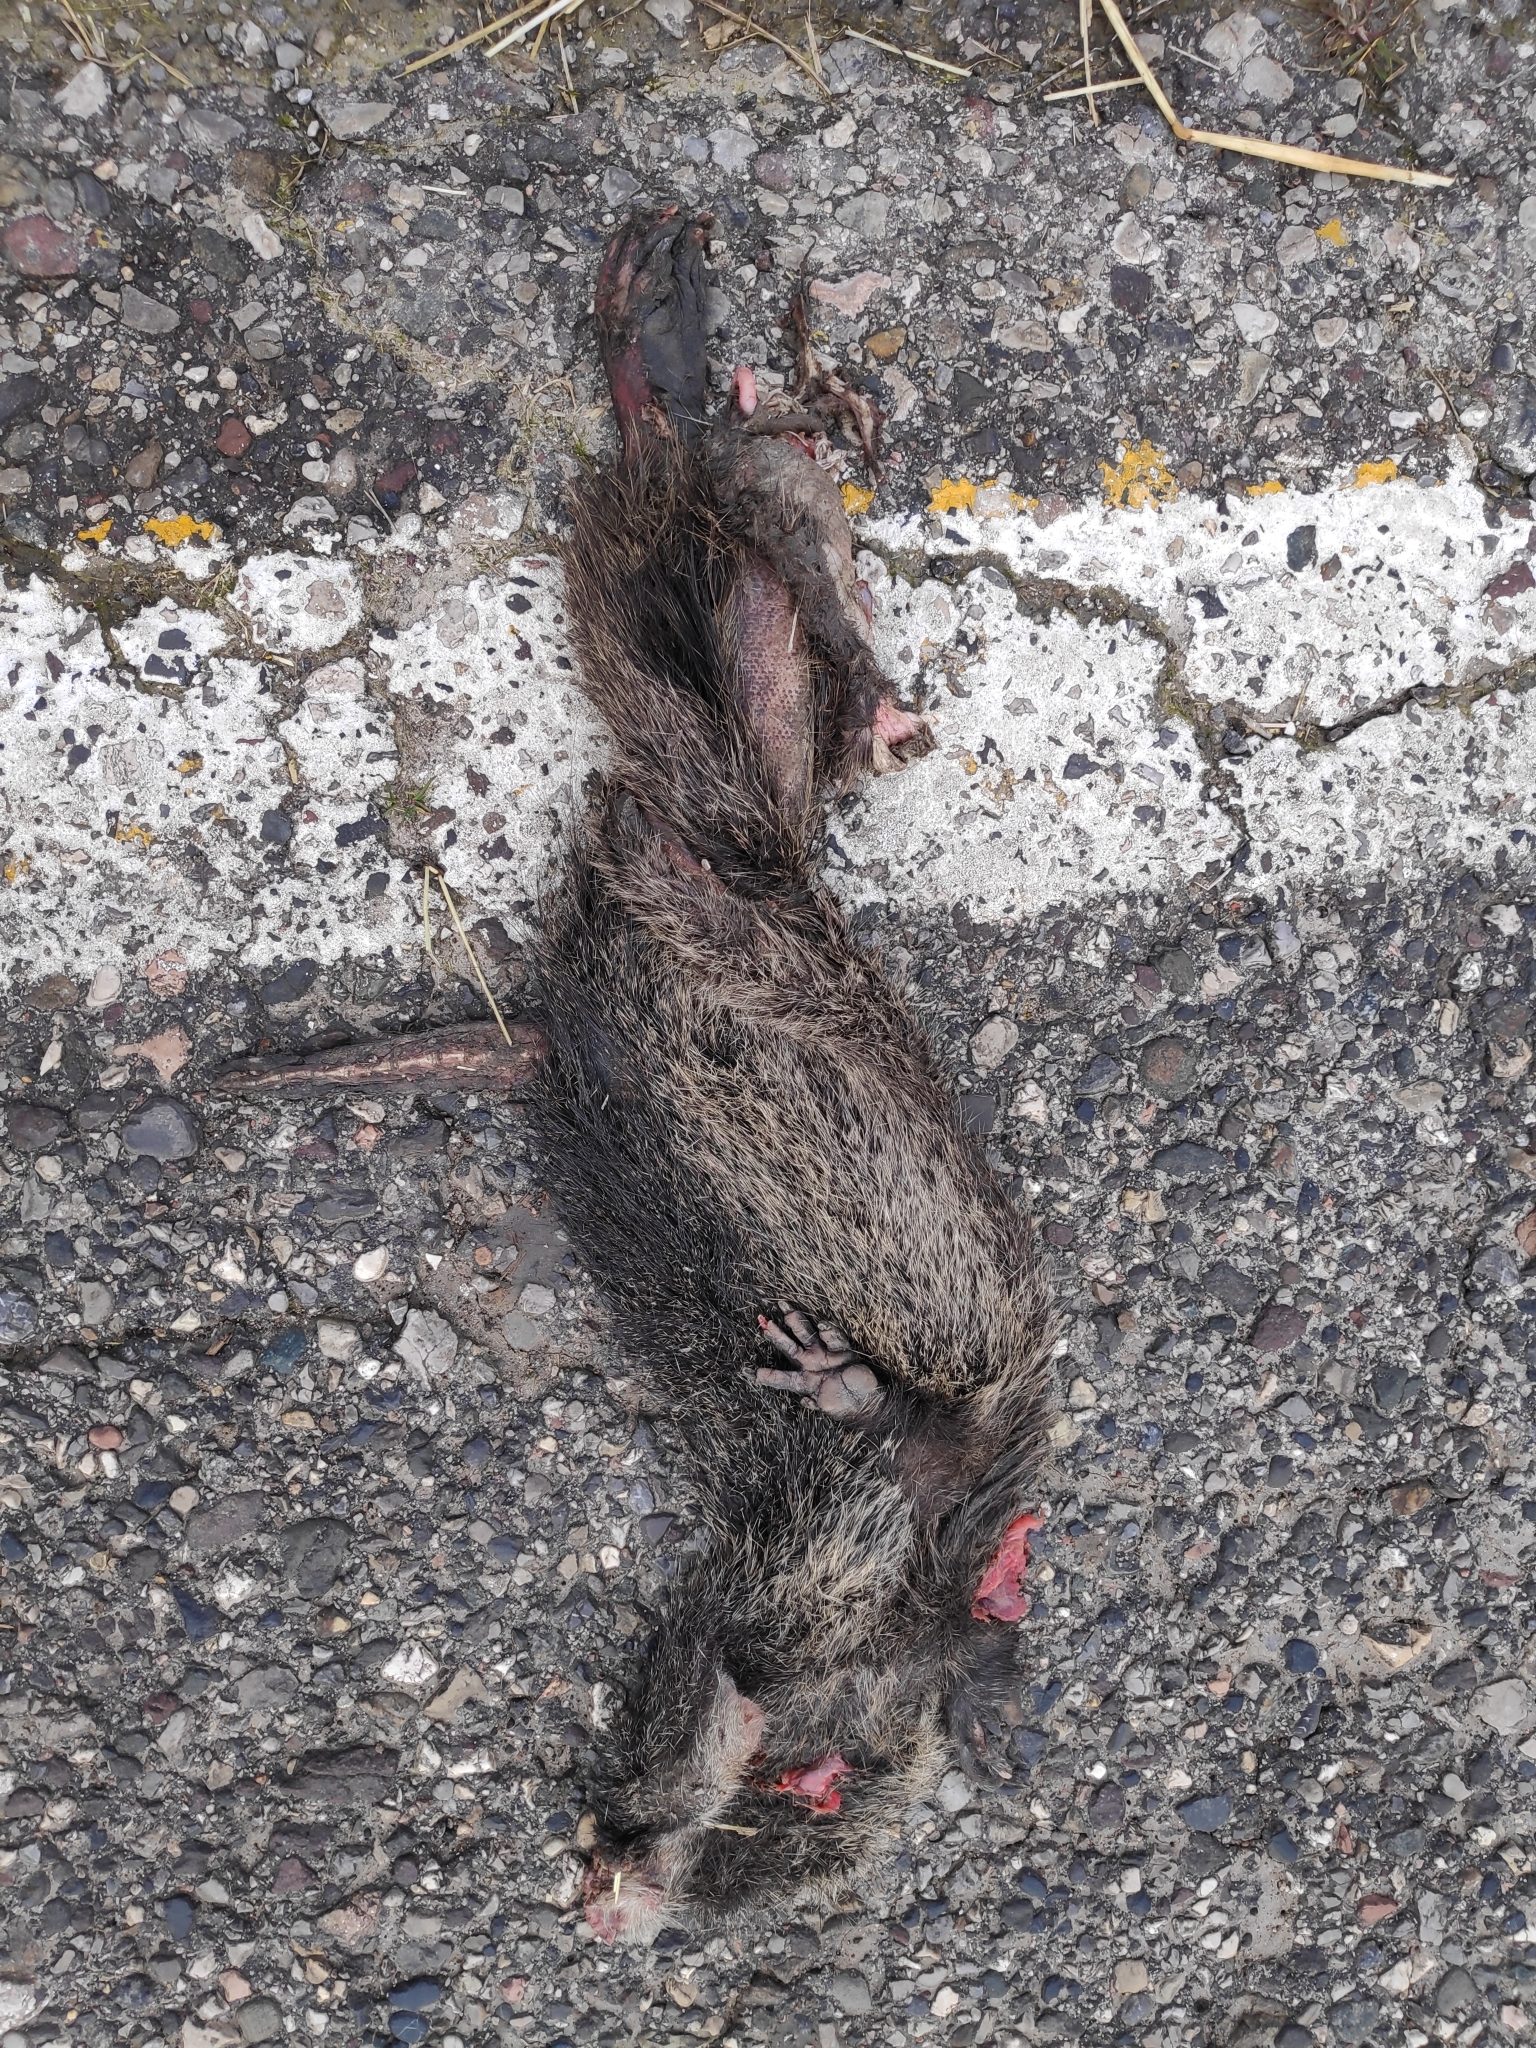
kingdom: Animalia
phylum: Chordata
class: Mammalia
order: Rodentia
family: Myocastoridae
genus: Myocastor
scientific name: Myocastor coypus
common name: Coypu
